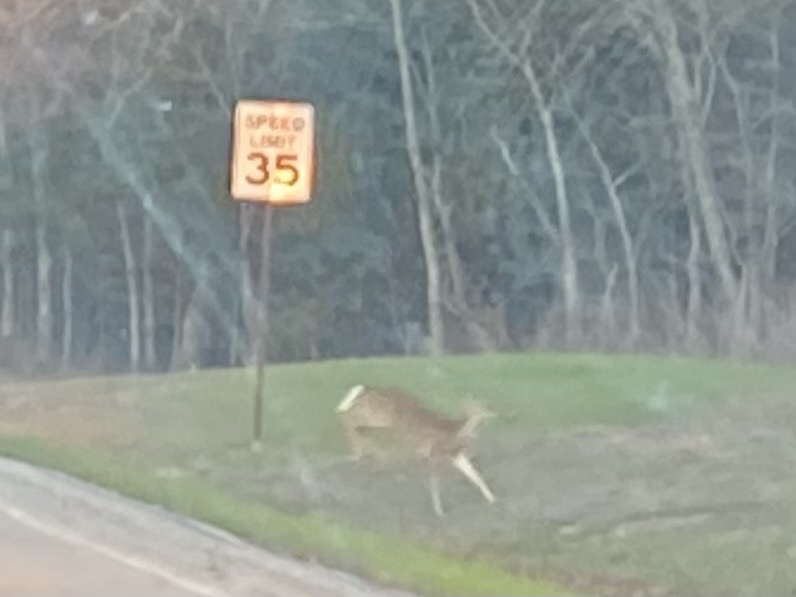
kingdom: Animalia
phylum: Chordata
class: Mammalia
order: Artiodactyla
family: Cervidae
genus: Odocoileus
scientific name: Odocoileus virginianus
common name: White-tailed deer
